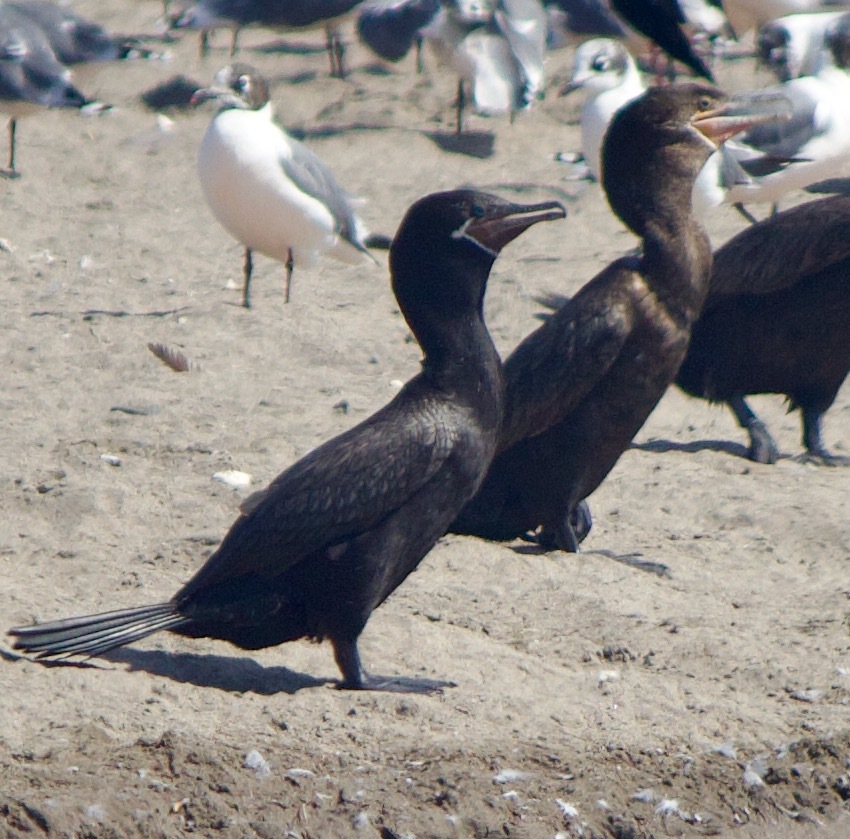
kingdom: Animalia
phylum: Chordata
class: Aves
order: Suliformes
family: Phalacrocoracidae
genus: Phalacrocorax
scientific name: Phalacrocorax brasilianus
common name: Neotropic cormorant
